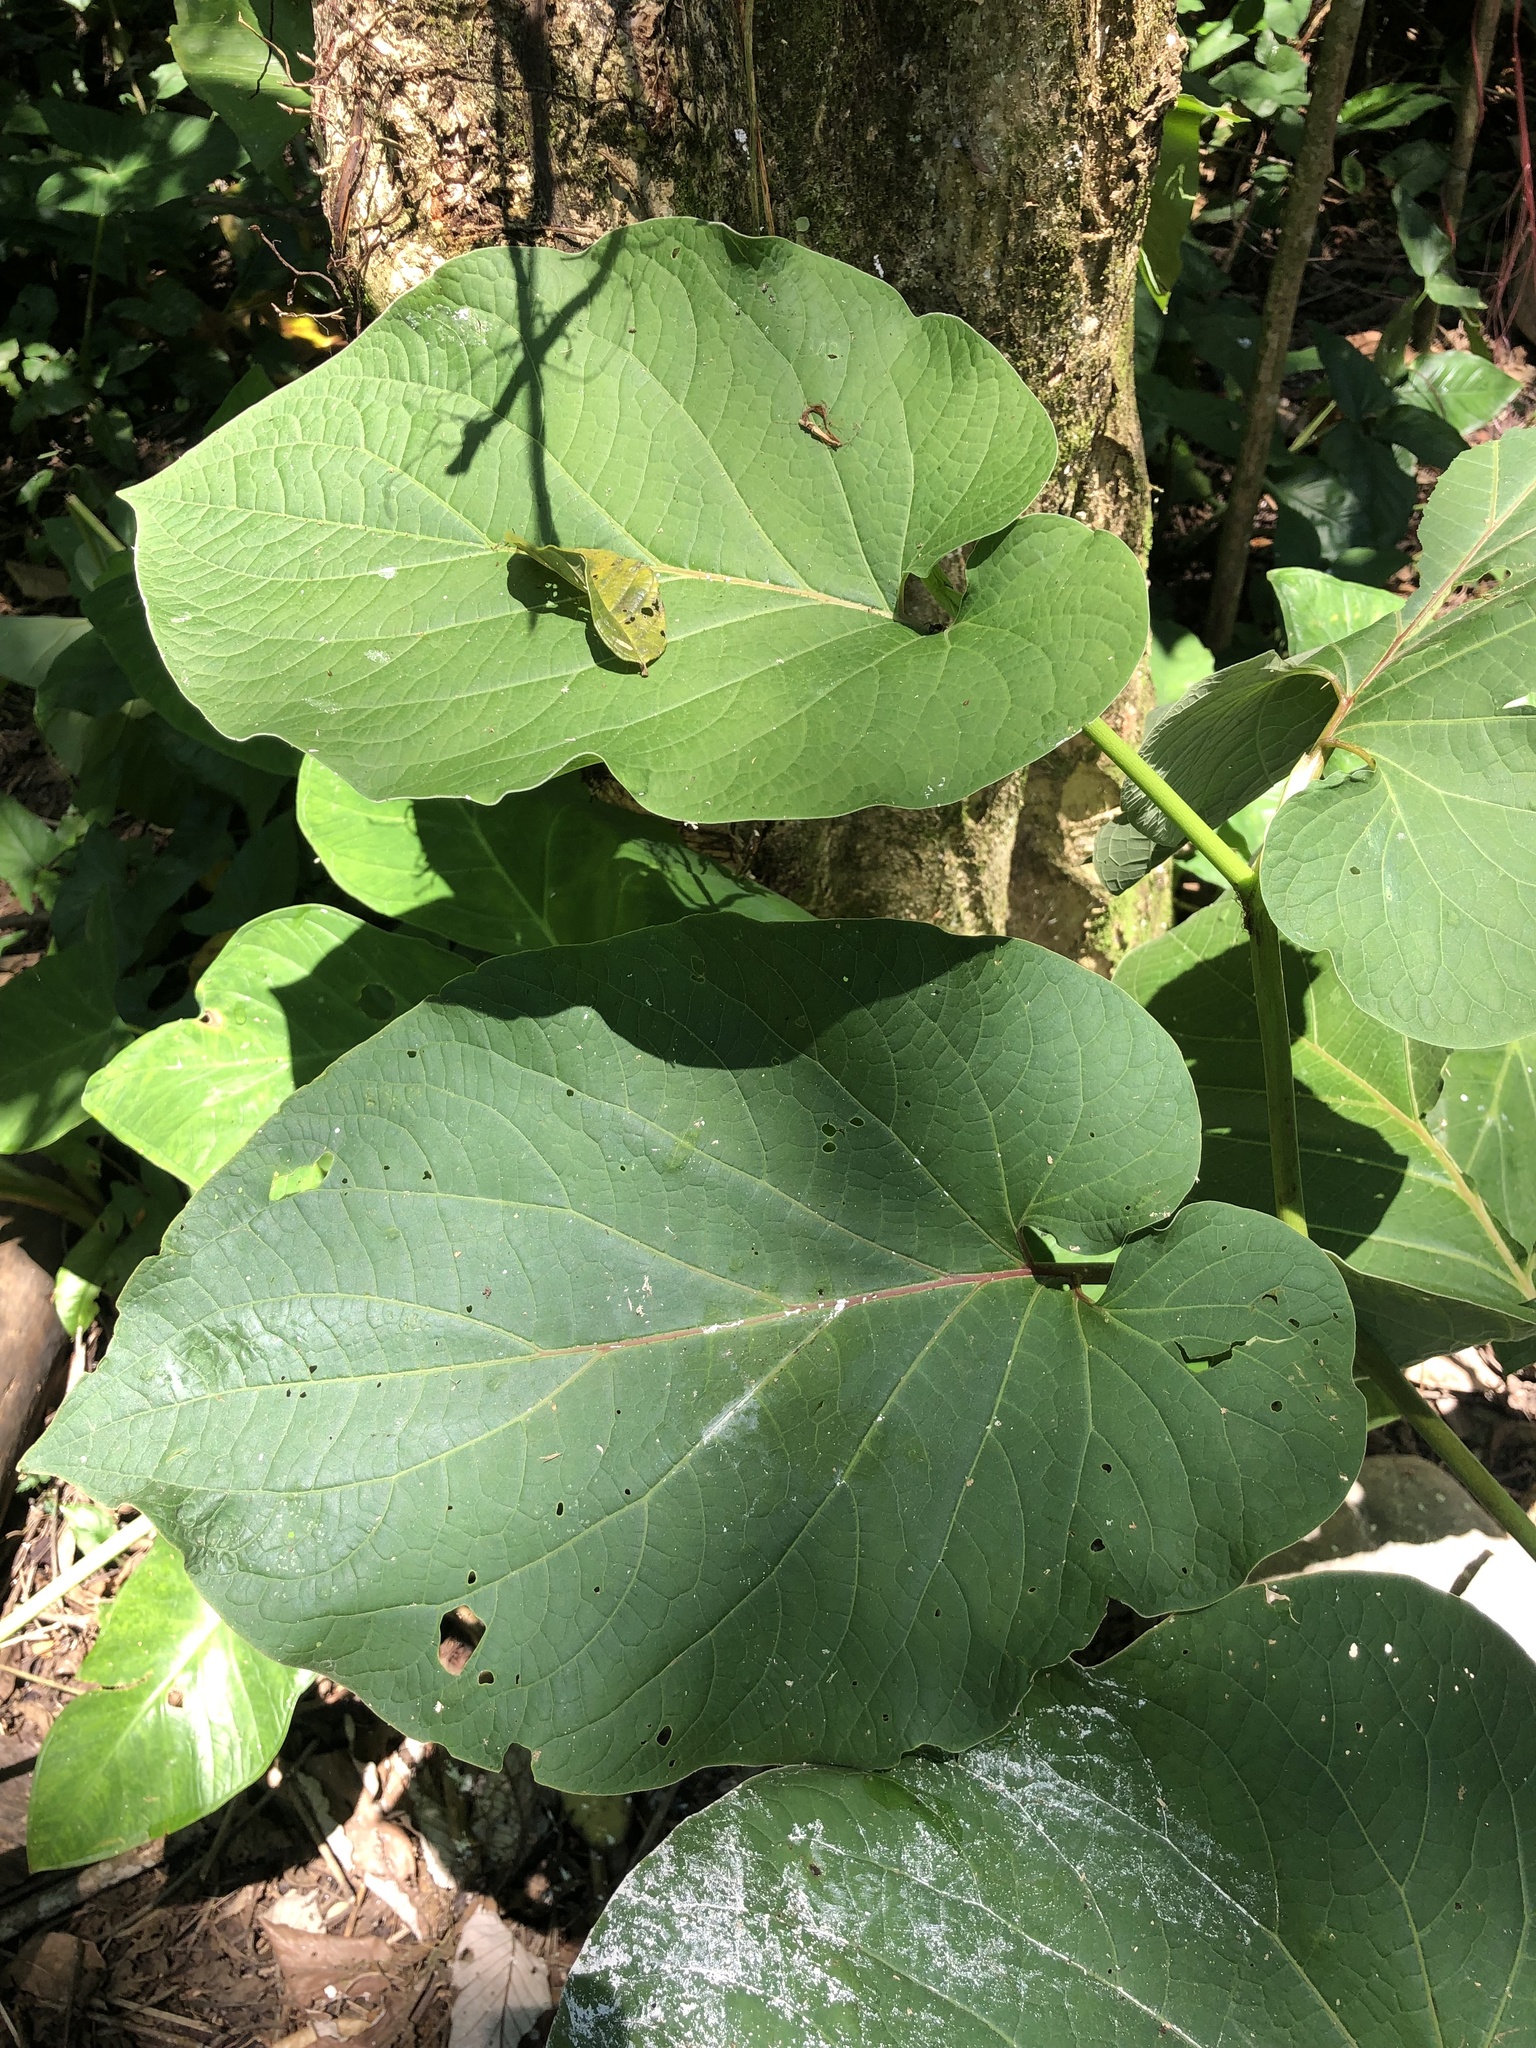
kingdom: Plantae
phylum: Tracheophyta
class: Magnoliopsida
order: Piperales
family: Piperaceae
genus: Piper
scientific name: Piper auritum
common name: Vera cruz pepper
